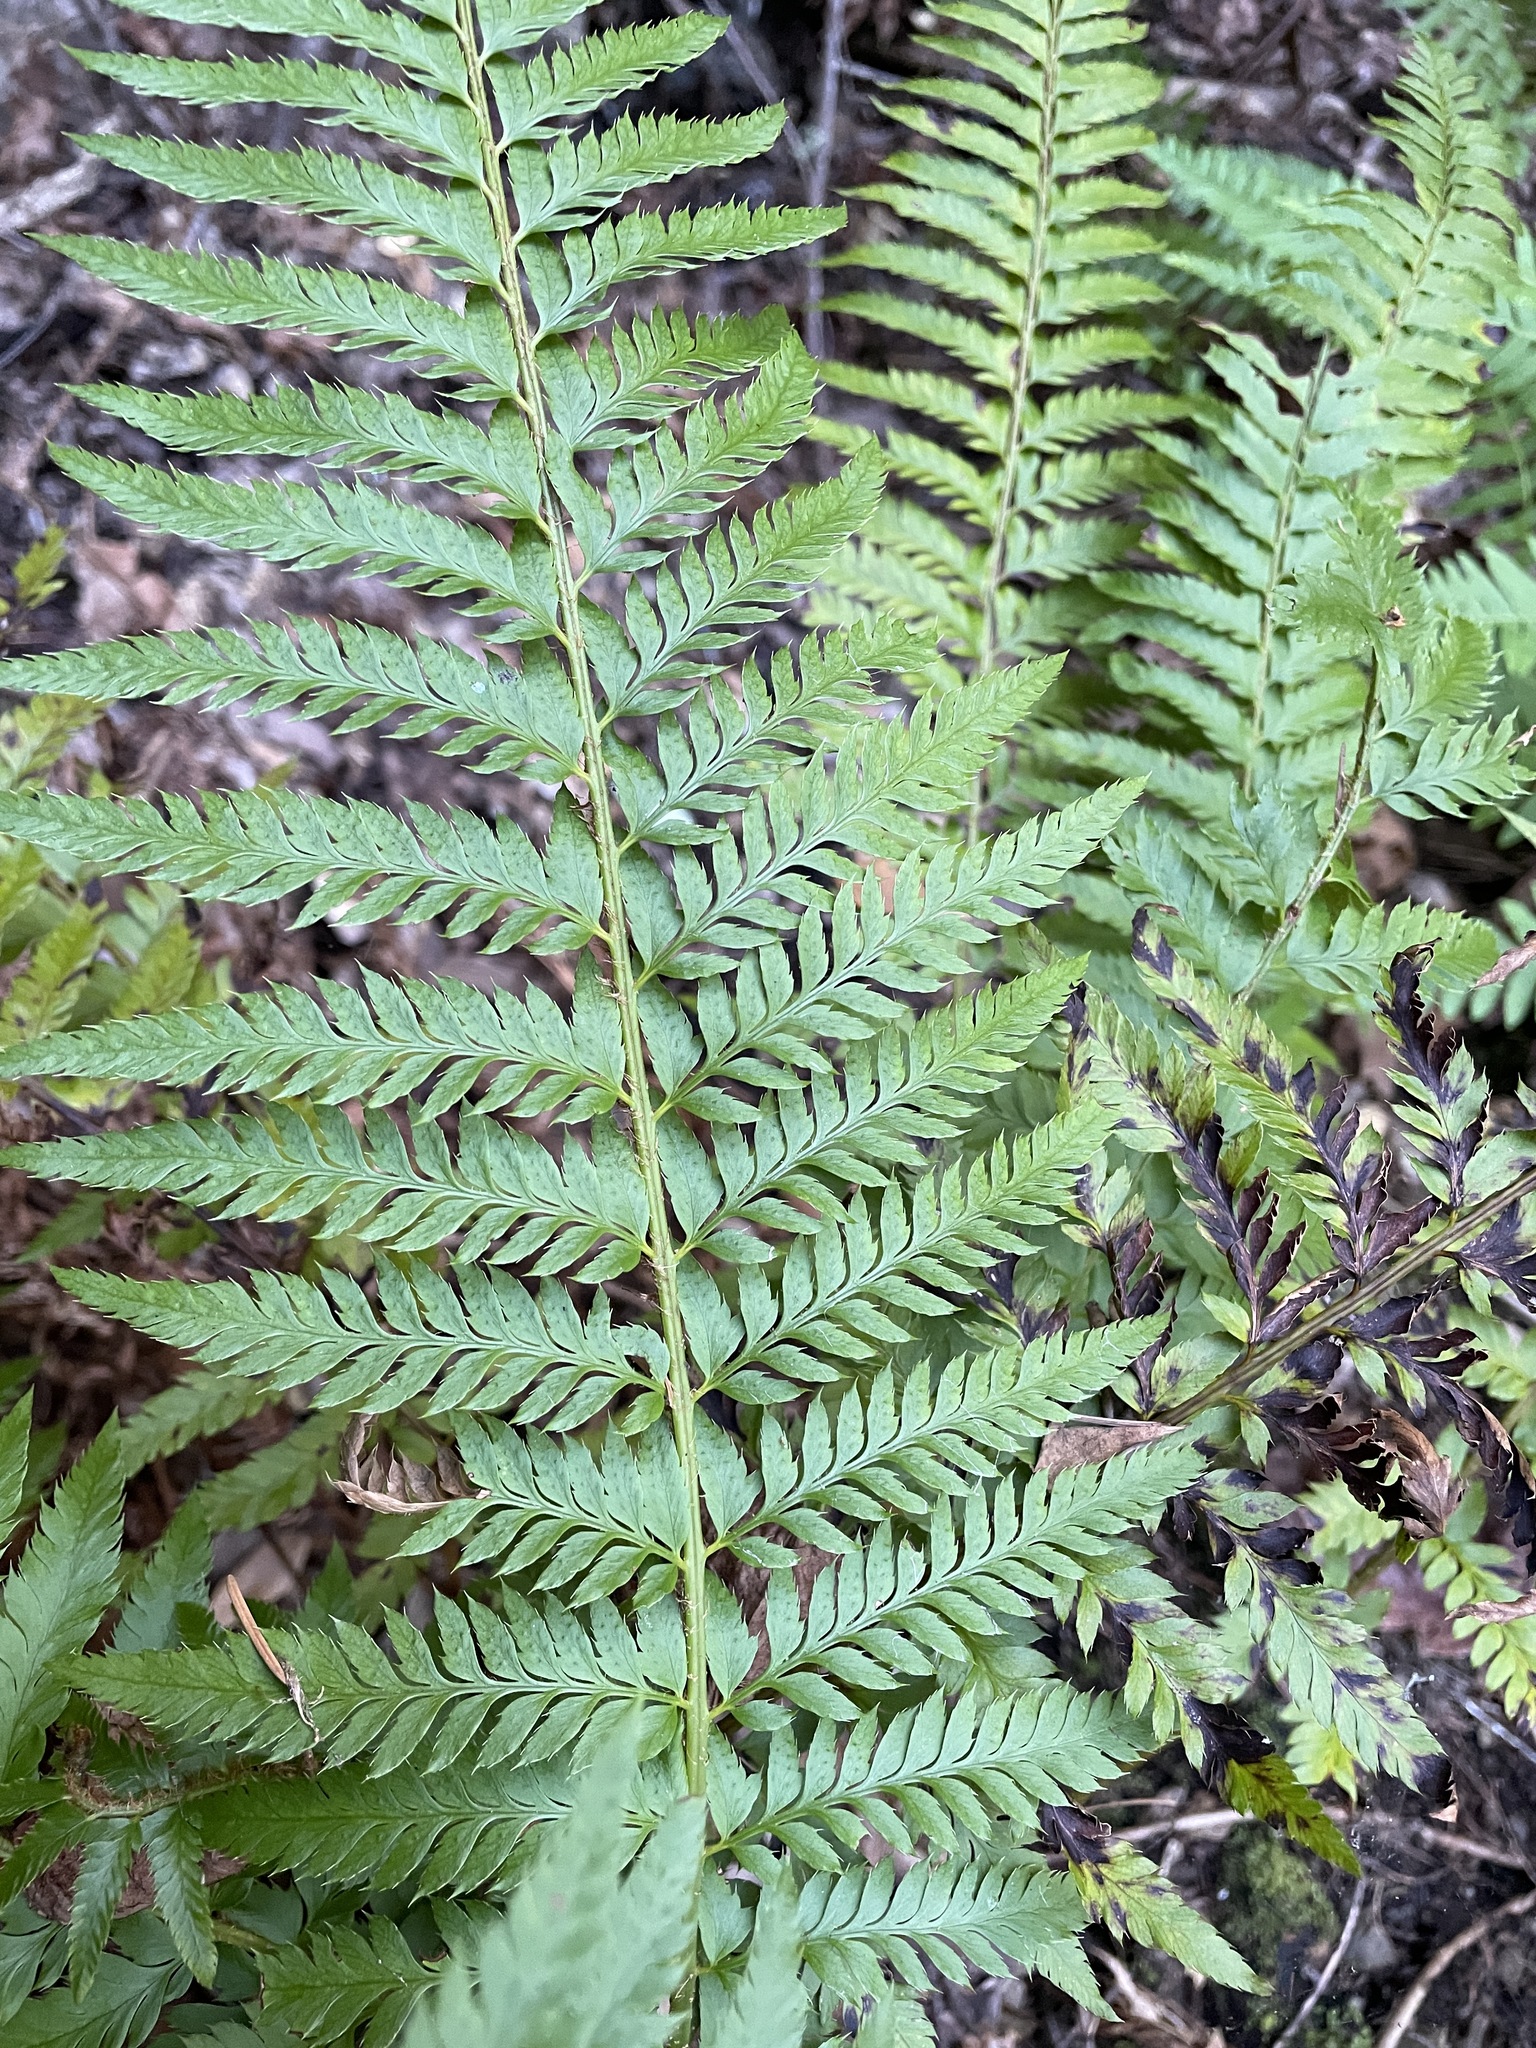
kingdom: Plantae
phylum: Tracheophyta
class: Polypodiopsida
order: Polypodiales
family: Dryopteridaceae
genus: Polystichum
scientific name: Polystichum dudleyi
